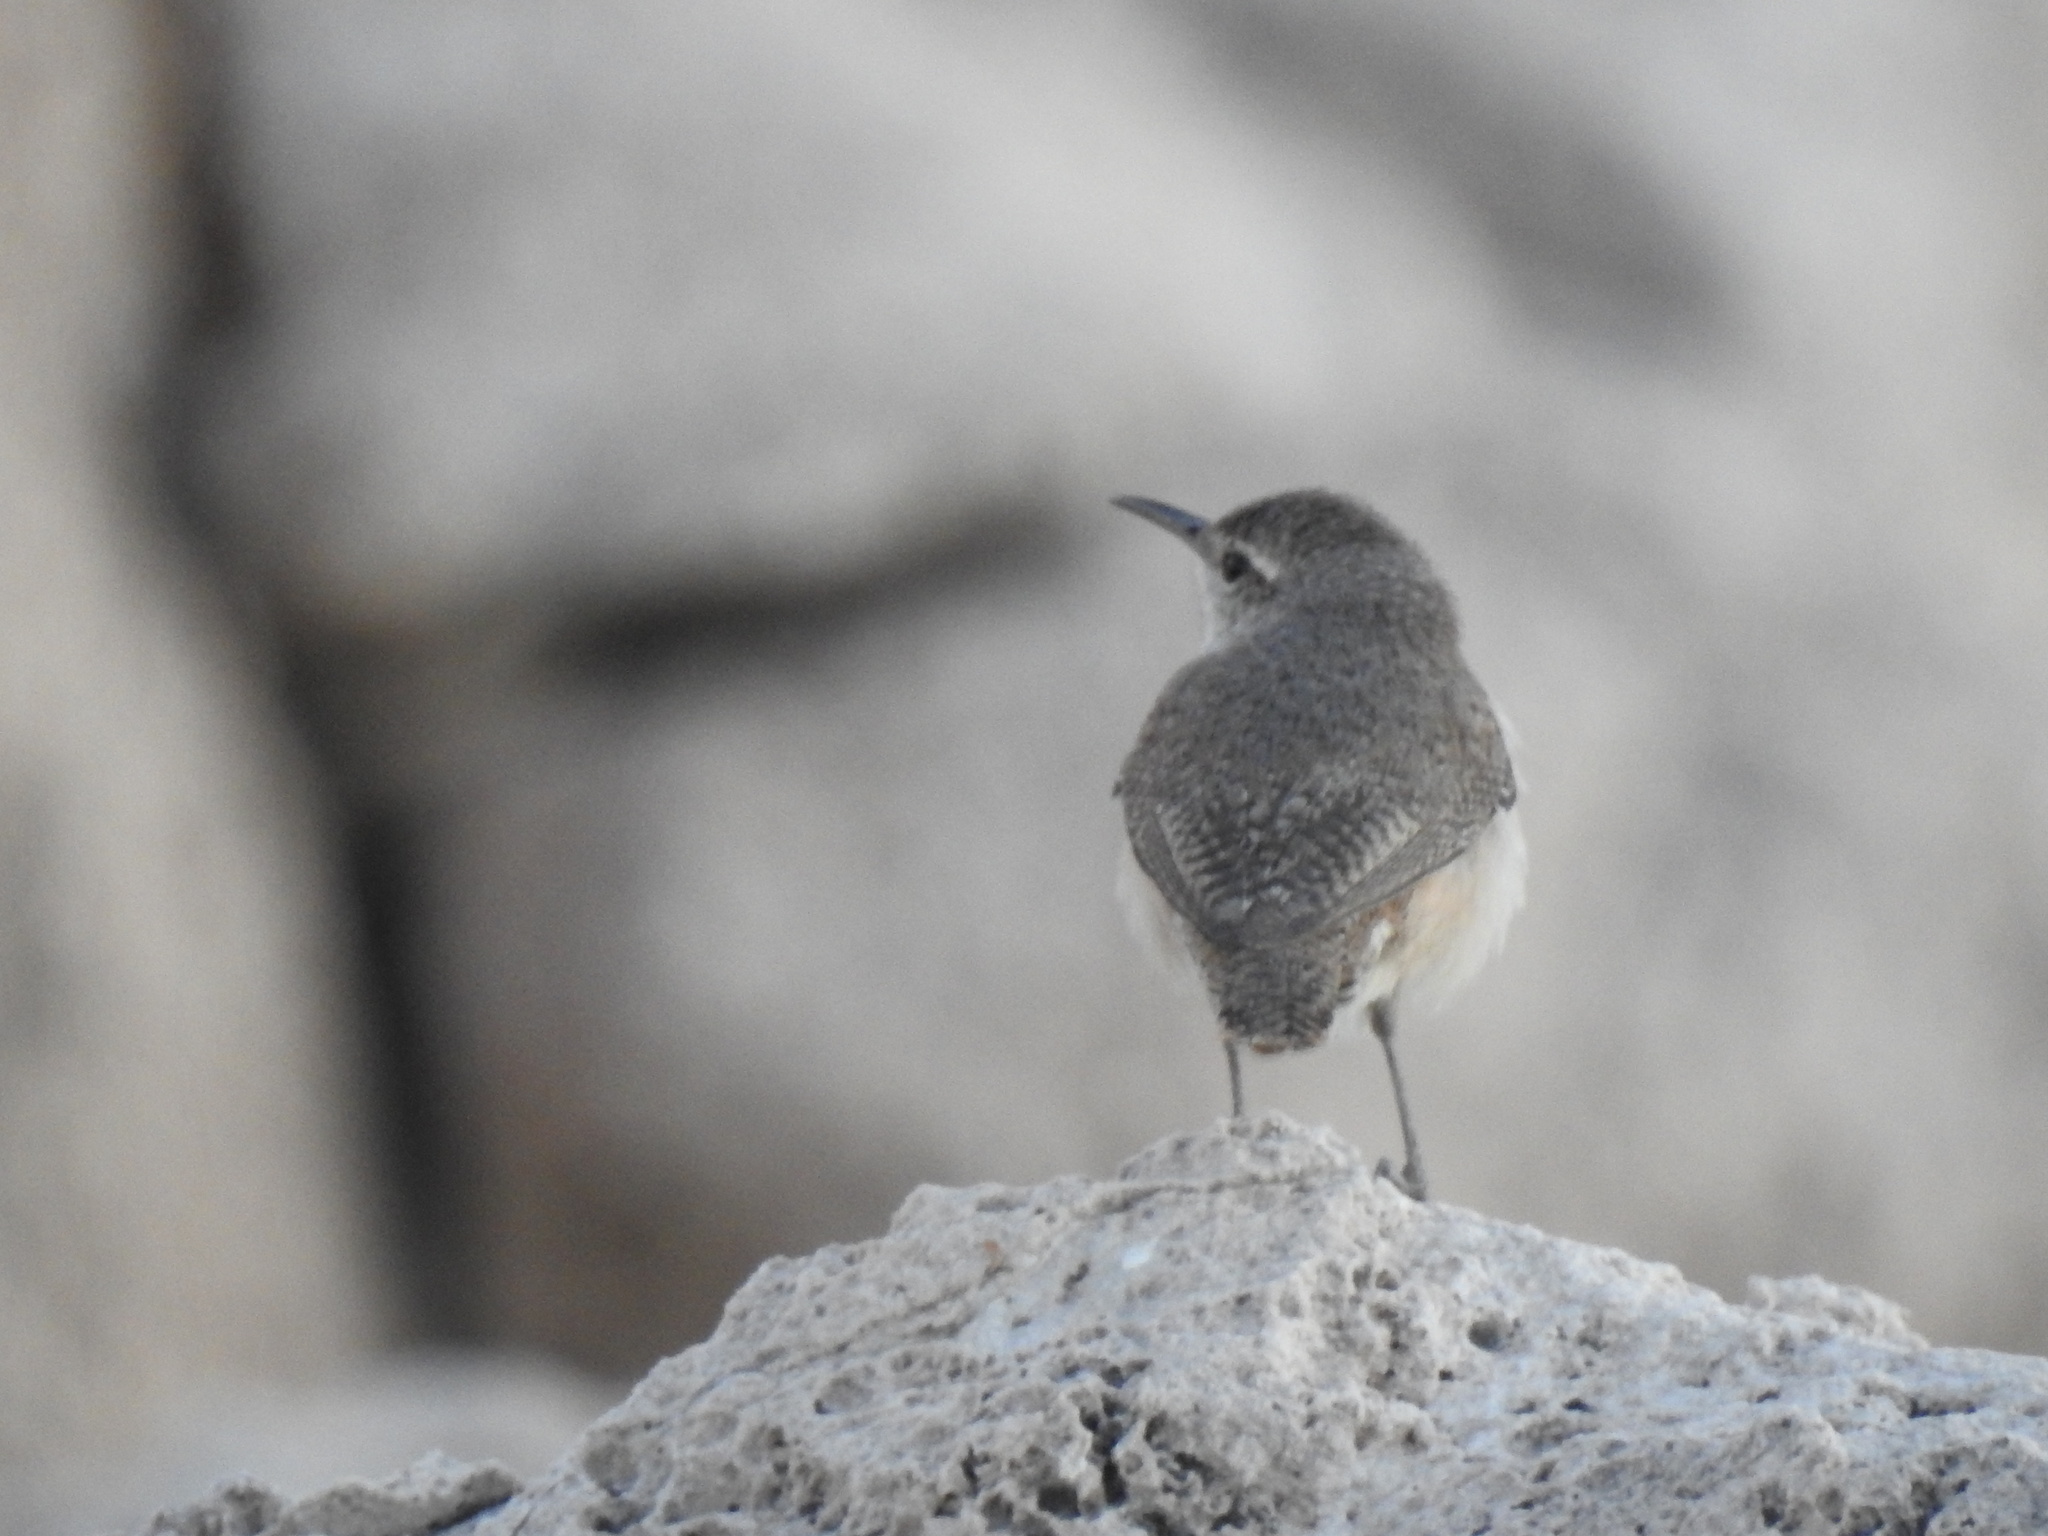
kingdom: Animalia
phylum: Chordata
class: Aves
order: Passeriformes
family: Troglodytidae
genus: Salpinctes
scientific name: Salpinctes obsoletus
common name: Rock wren
